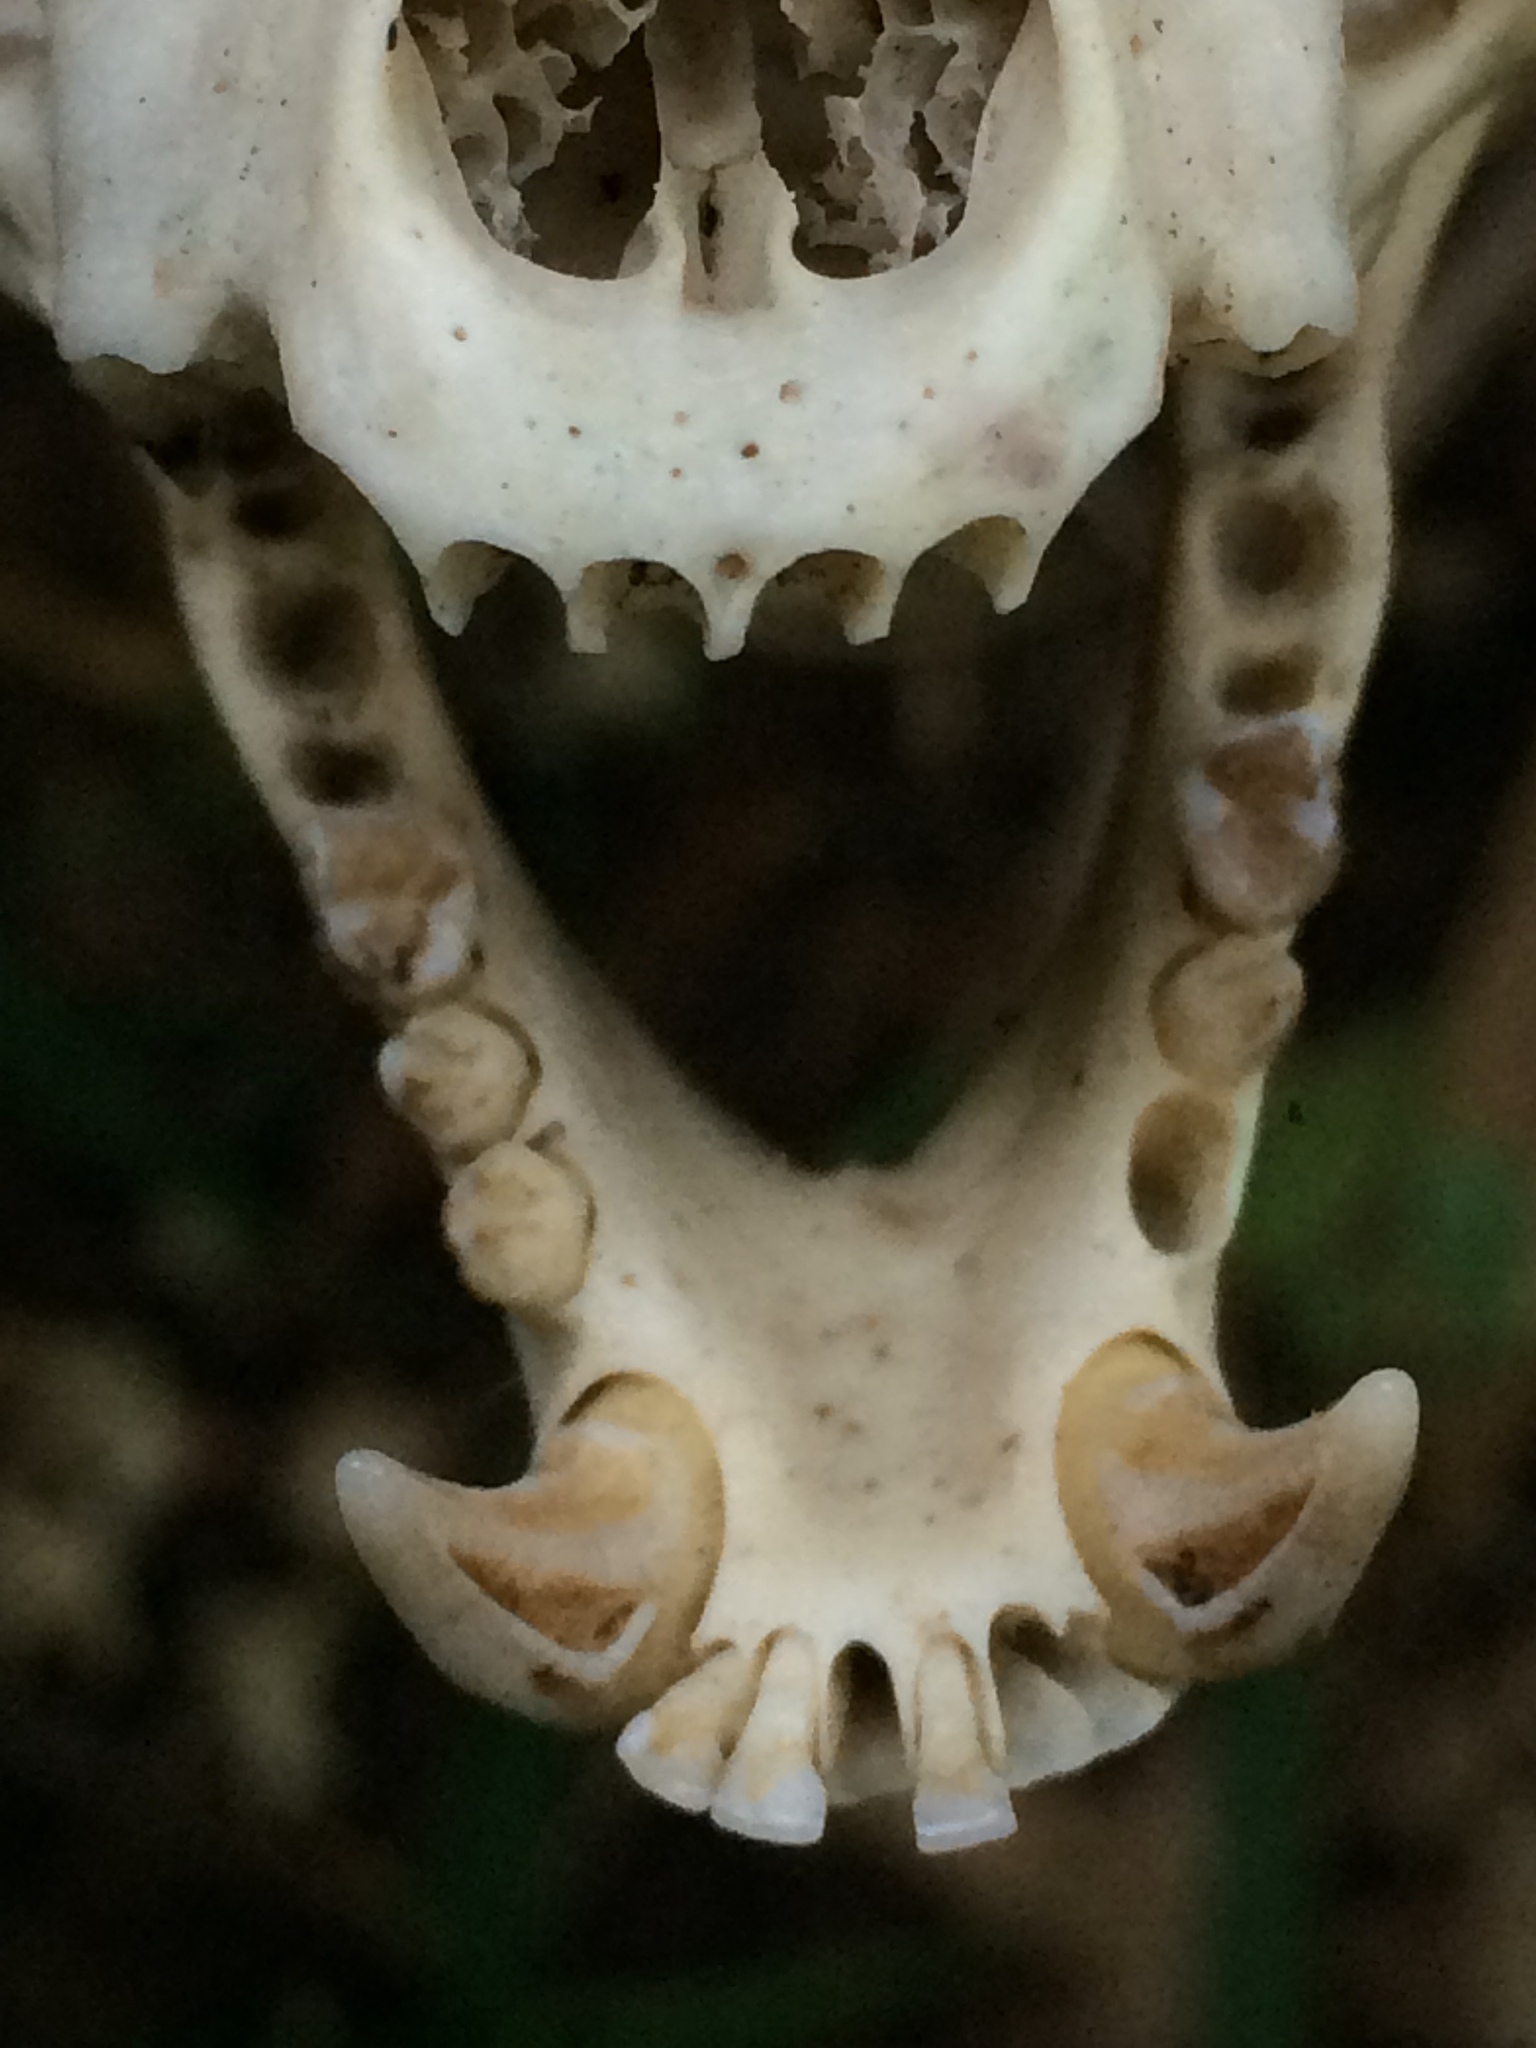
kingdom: Animalia
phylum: Chordata
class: Mammalia
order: Carnivora
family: Procyonidae
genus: Potos
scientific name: Potos flavus
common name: Kinkajou
